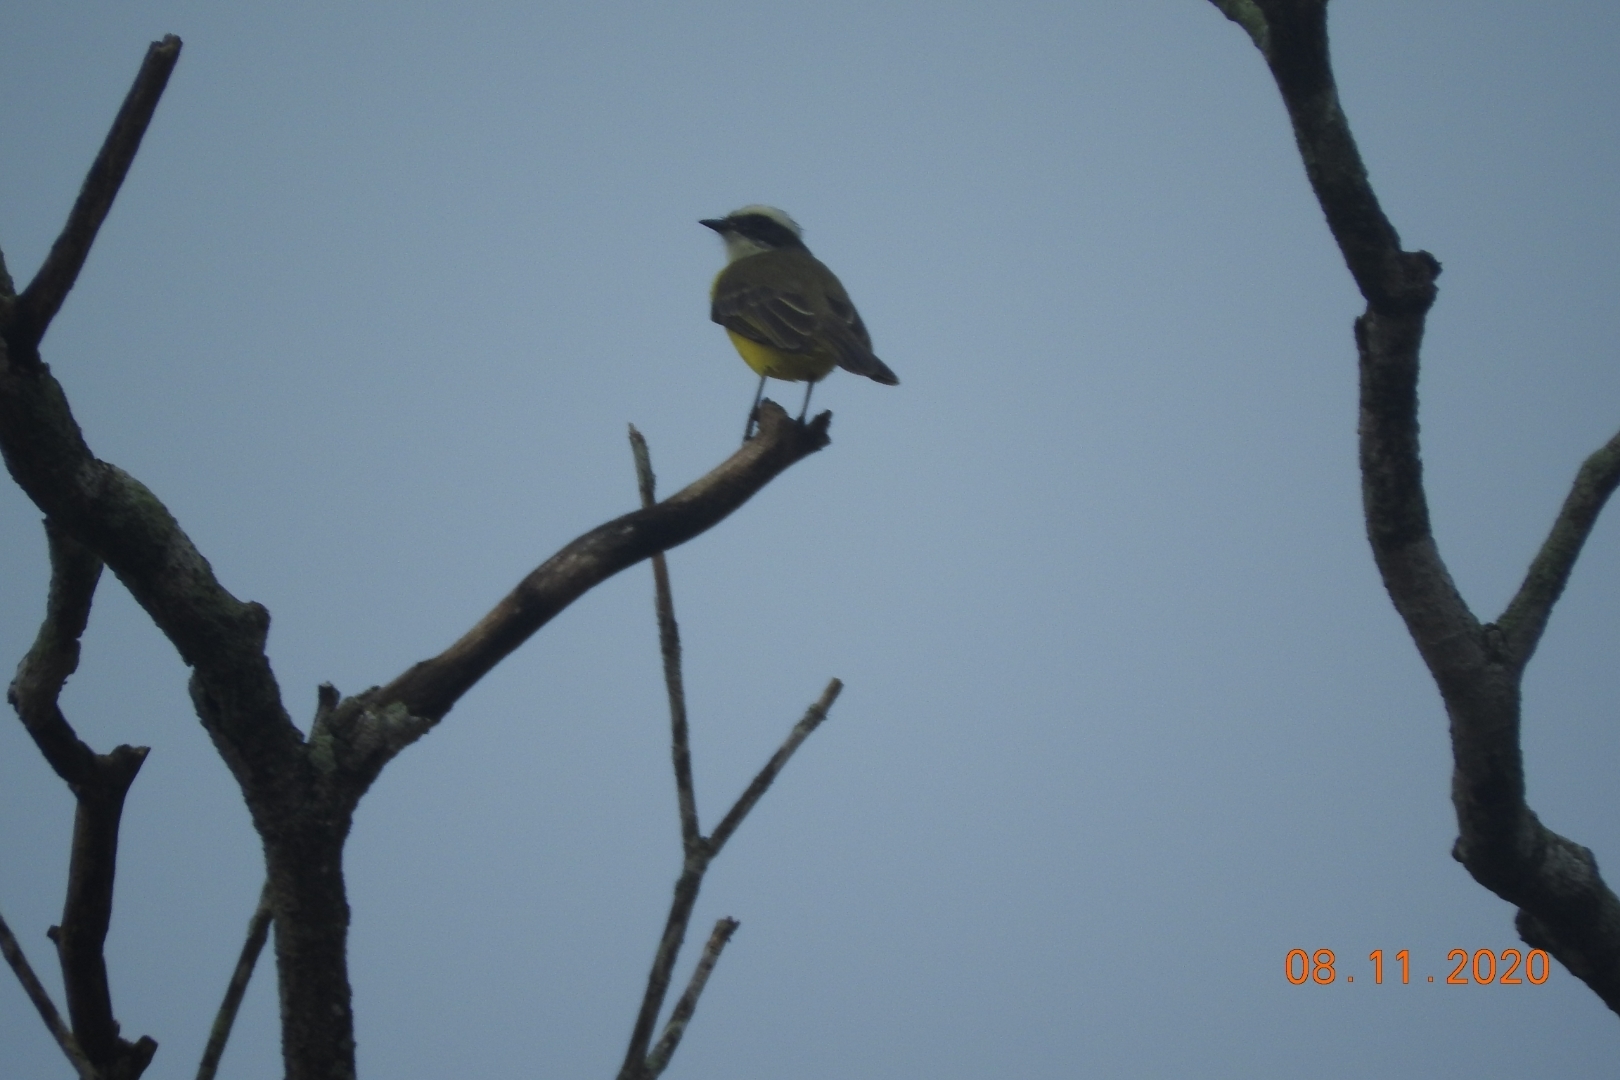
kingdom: Animalia
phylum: Chordata
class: Aves
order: Passeriformes
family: Tyrannidae
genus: Myiozetetes
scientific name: Myiozetetes similis
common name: Social flycatcher
